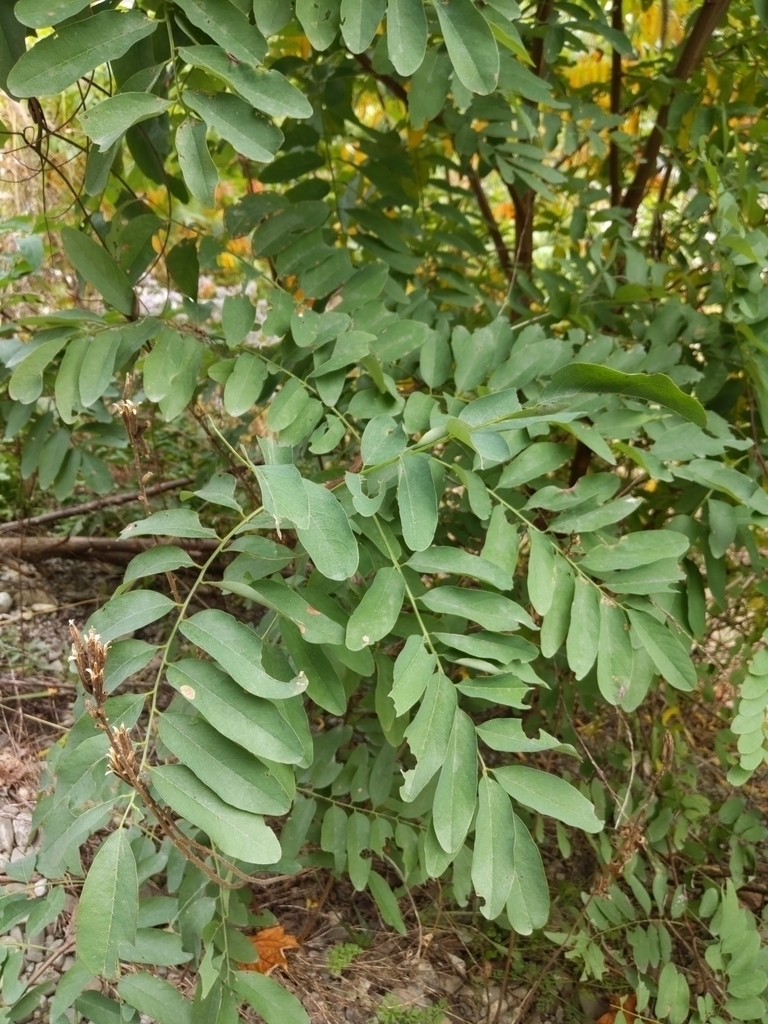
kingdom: Animalia
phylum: Arthropoda
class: Insecta
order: Diptera
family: Cecidomyiidae
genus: Obolodiplosis
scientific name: Obolodiplosis robiniae
